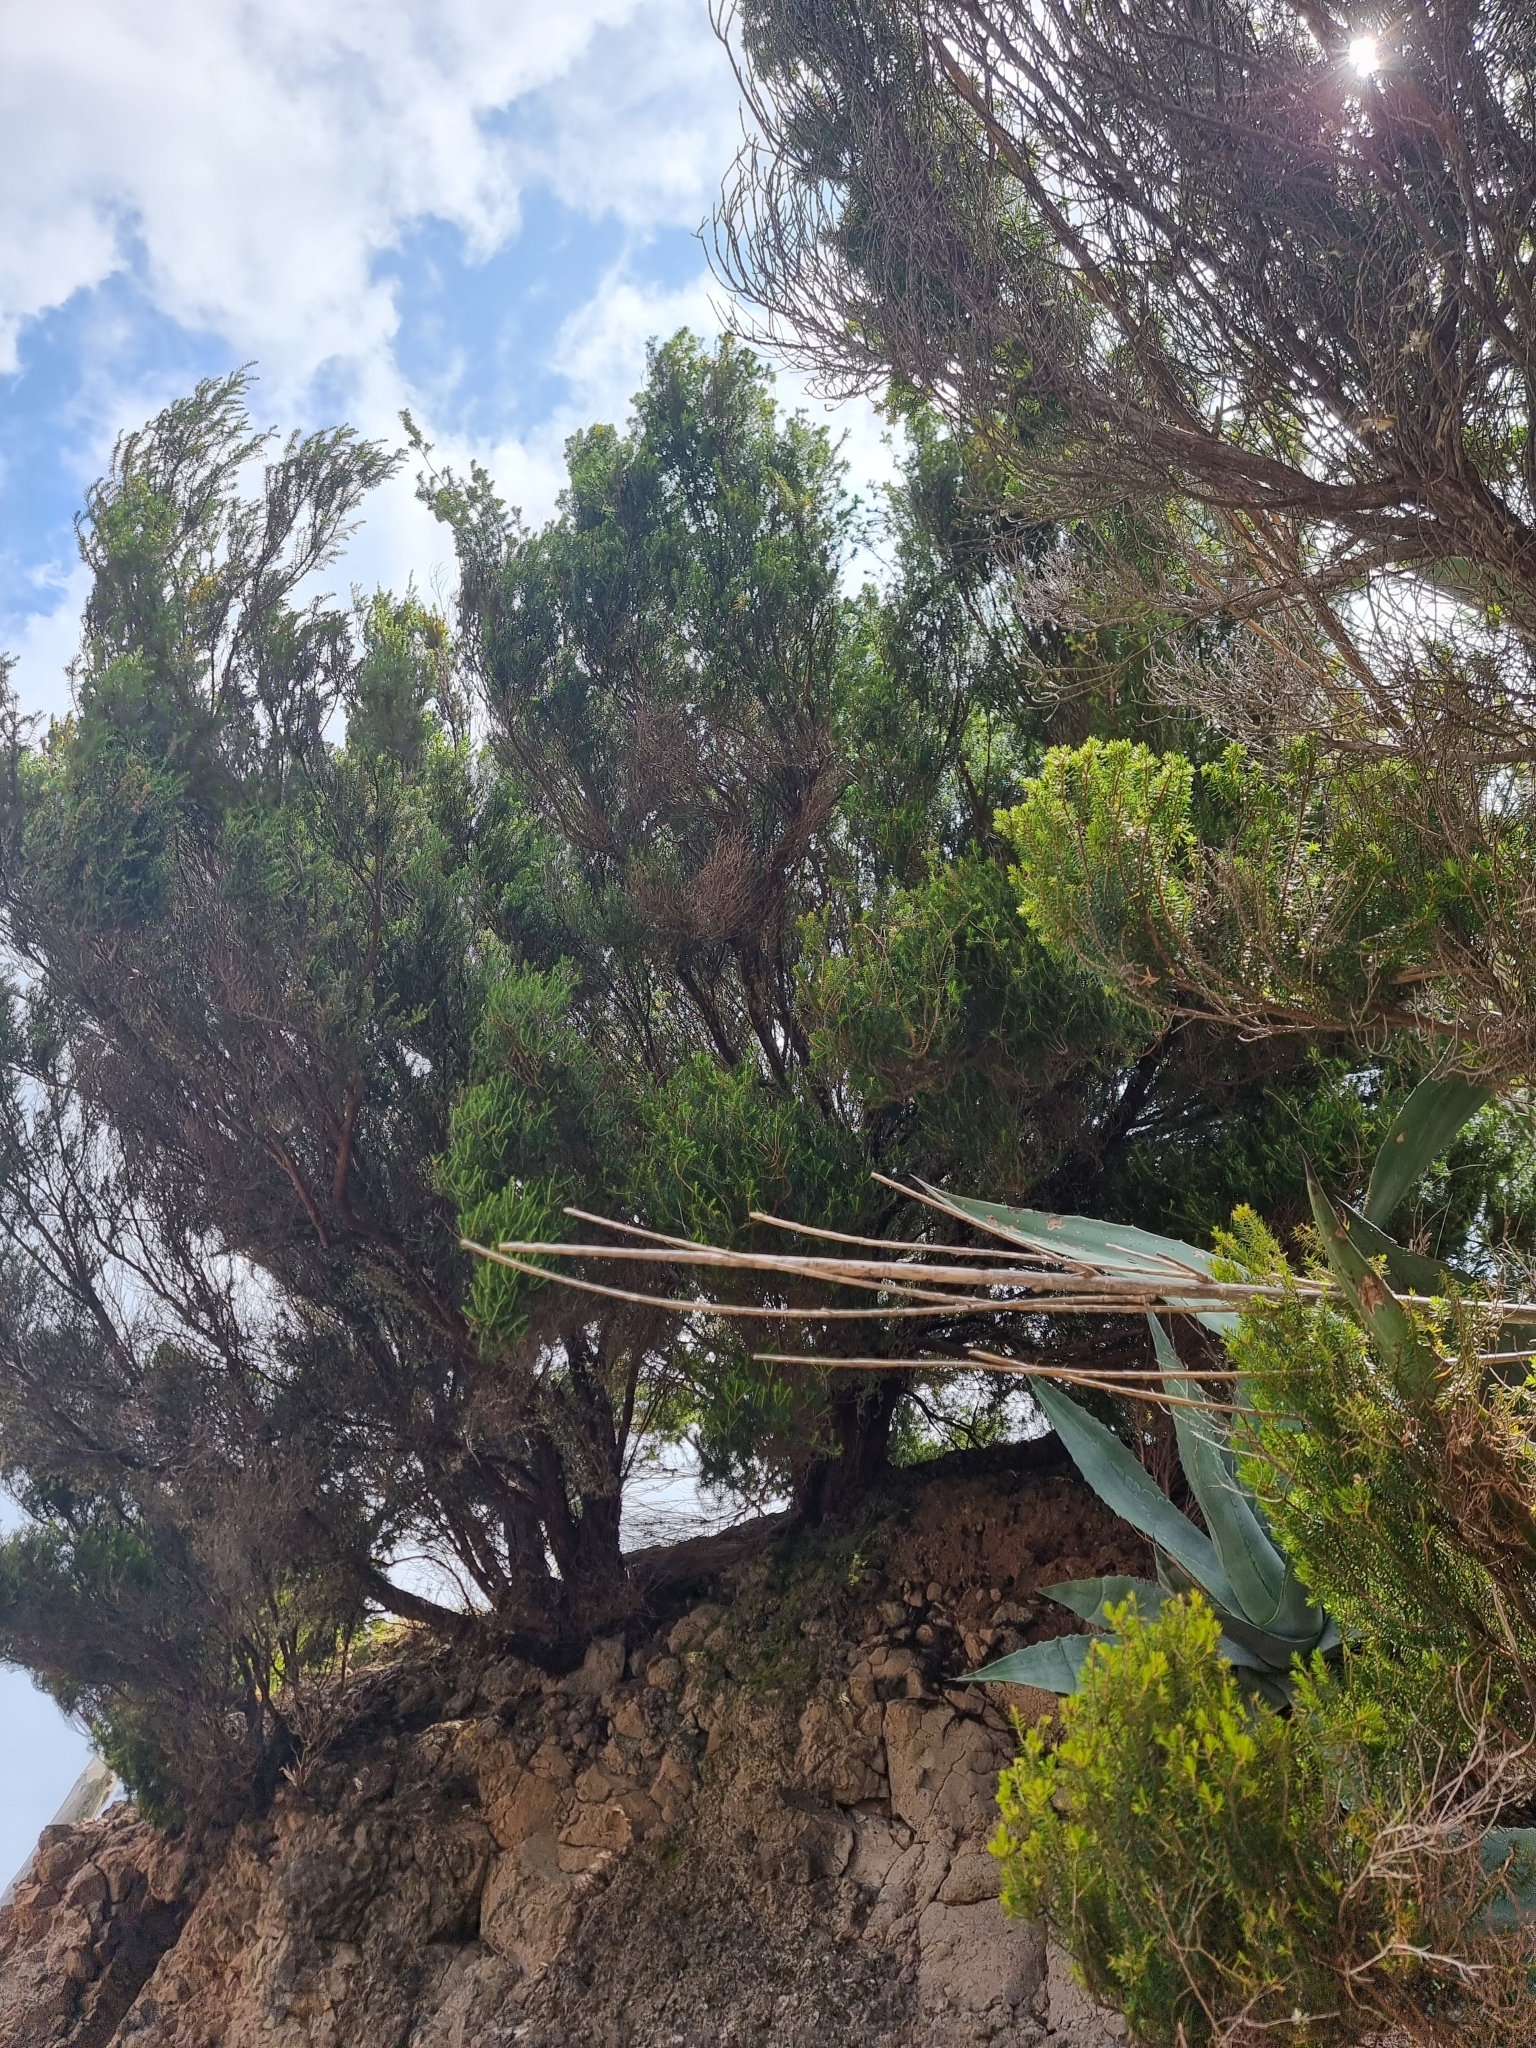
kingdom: Plantae
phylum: Tracheophyta
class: Magnoliopsida
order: Ericales
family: Ericaceae
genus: Erica
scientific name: Erica platycodon
